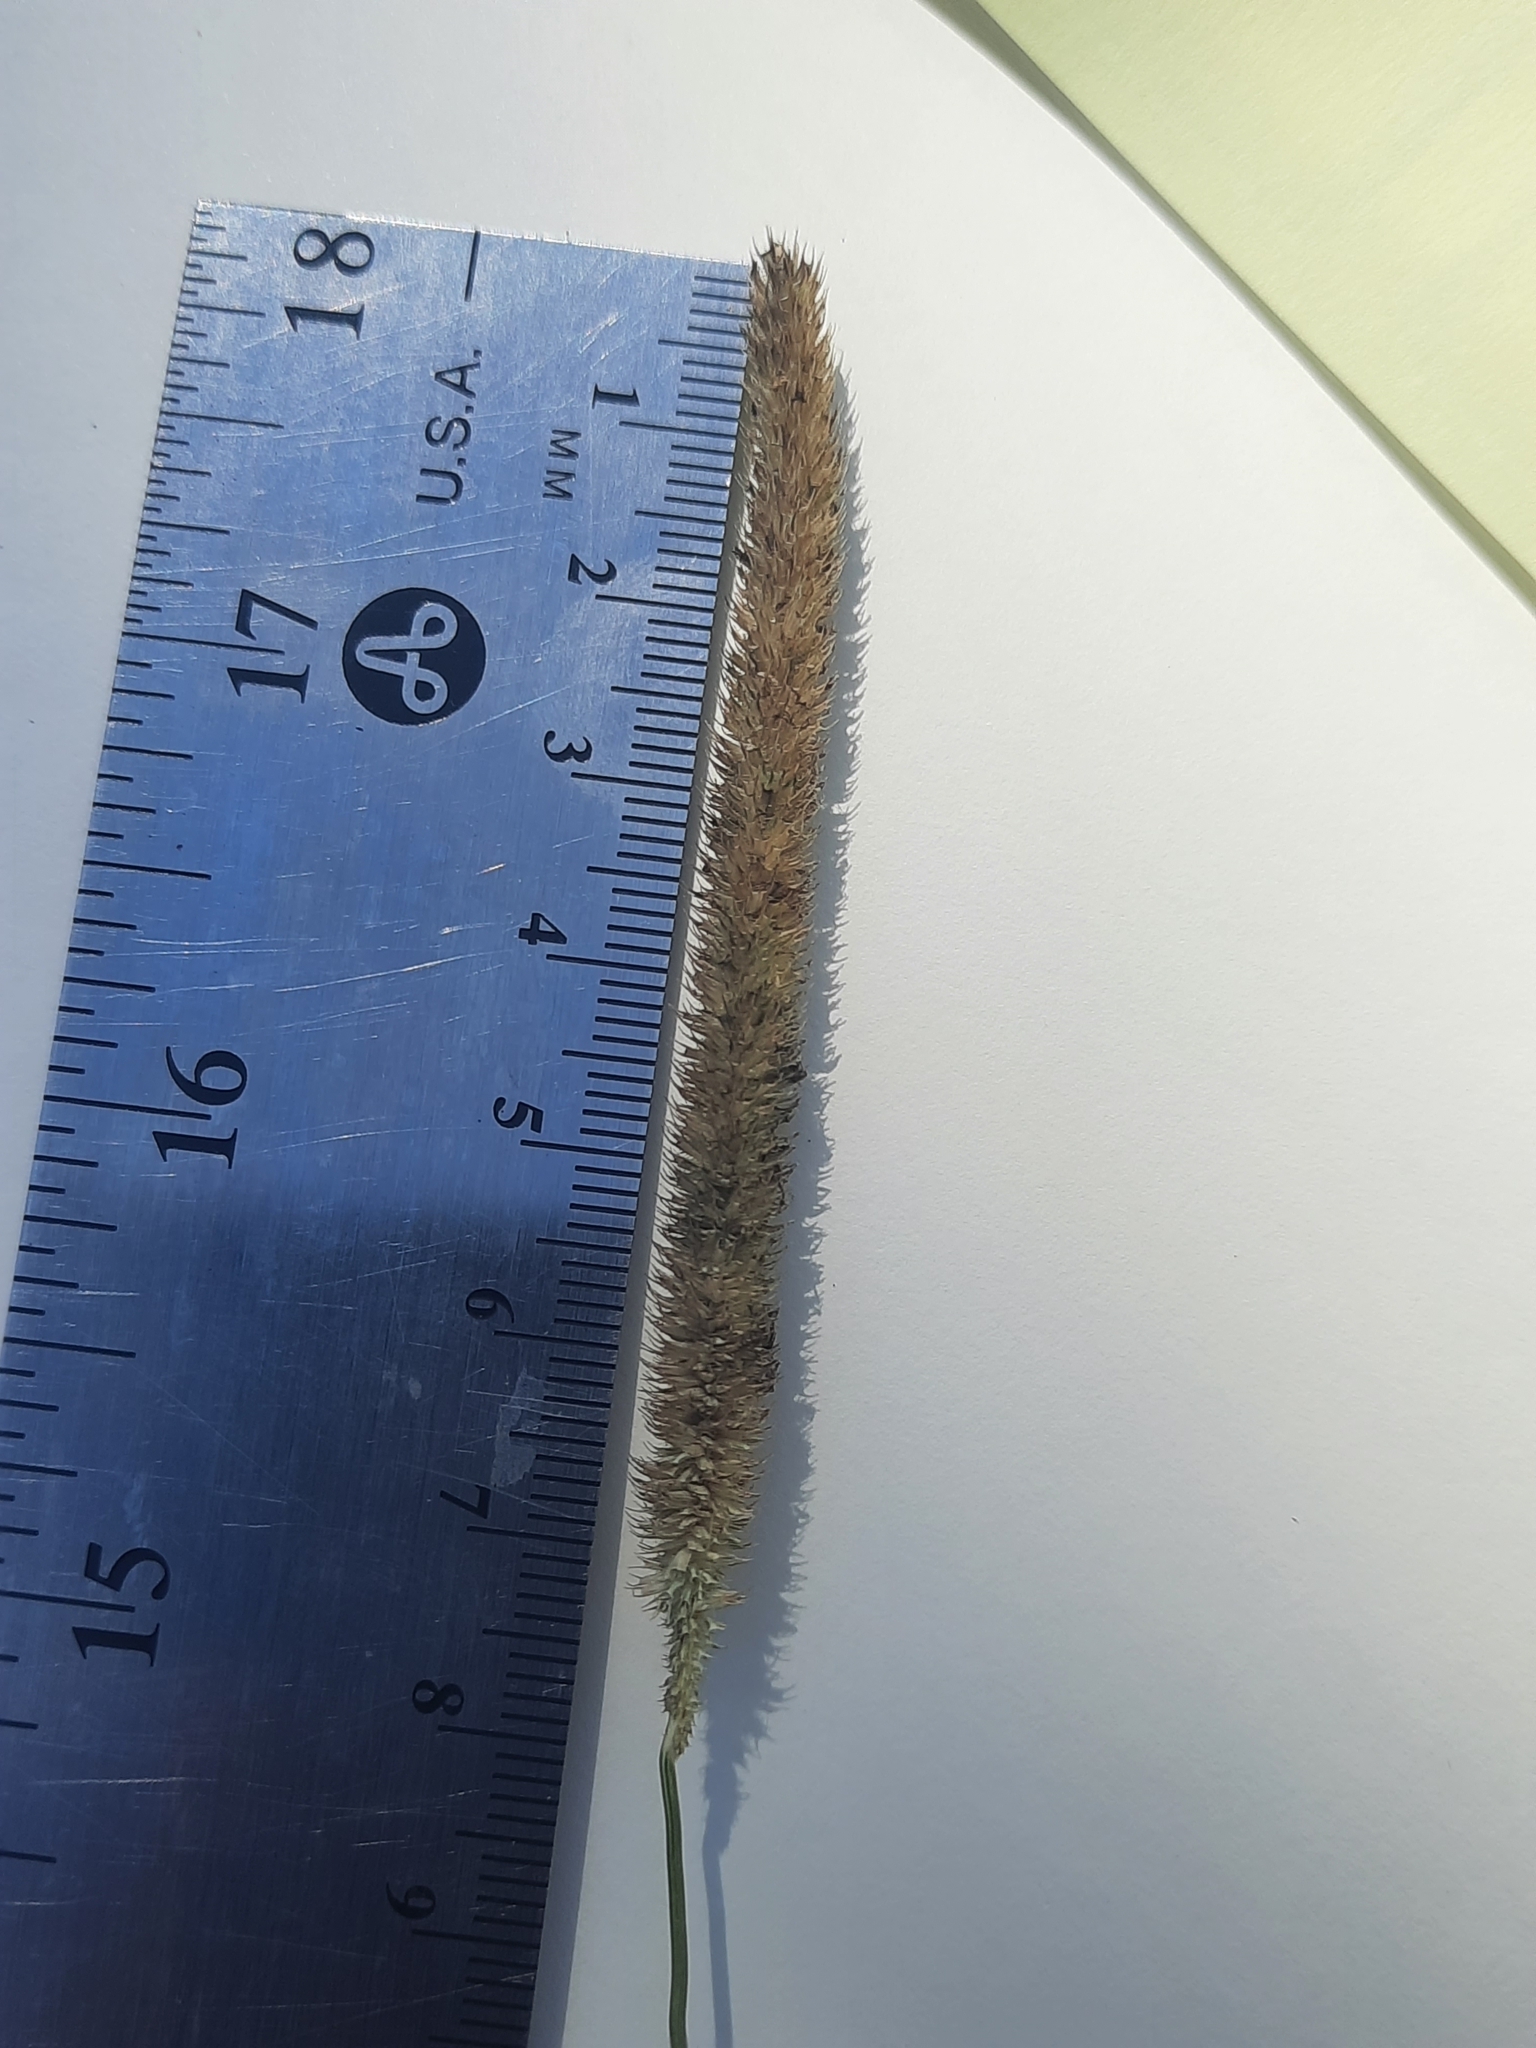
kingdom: Plantae
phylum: Tracheophyta
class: Liliopsida
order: Poales
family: Poaceae
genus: Phleum
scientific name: Phleum pratense
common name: Timothy grass
